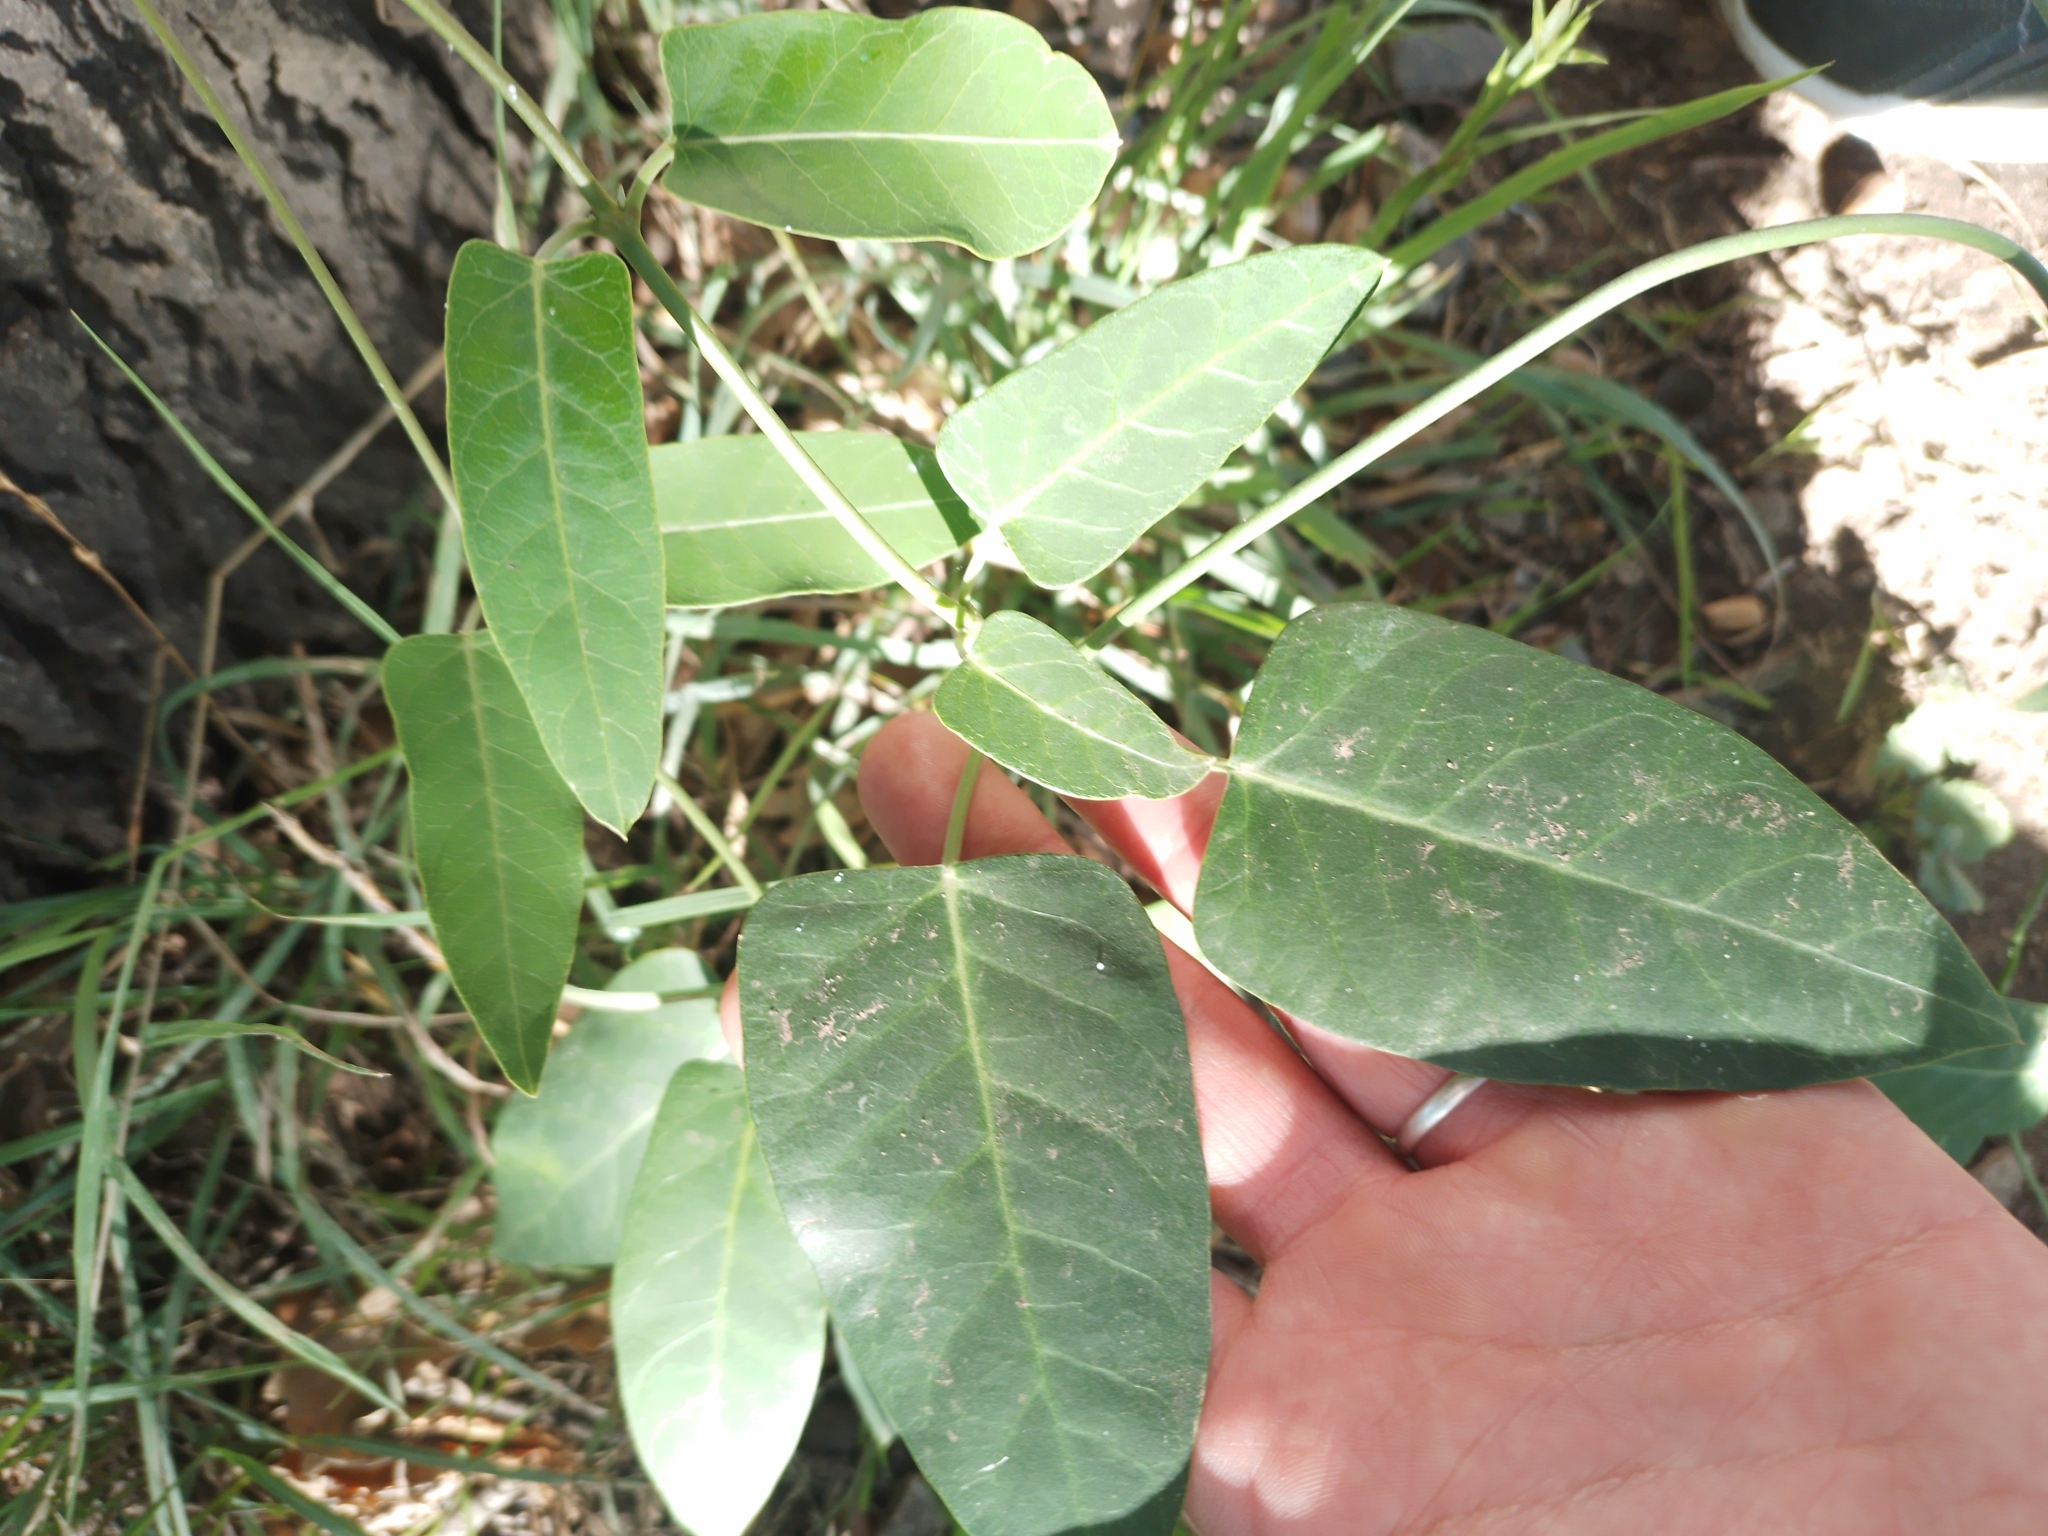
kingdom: Plantae
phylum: Tracheophyta
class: Magnoliopsida
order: Gentianales
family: Apocynaceae
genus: Araujia
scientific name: Araujia sericifera
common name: White bladderflower
